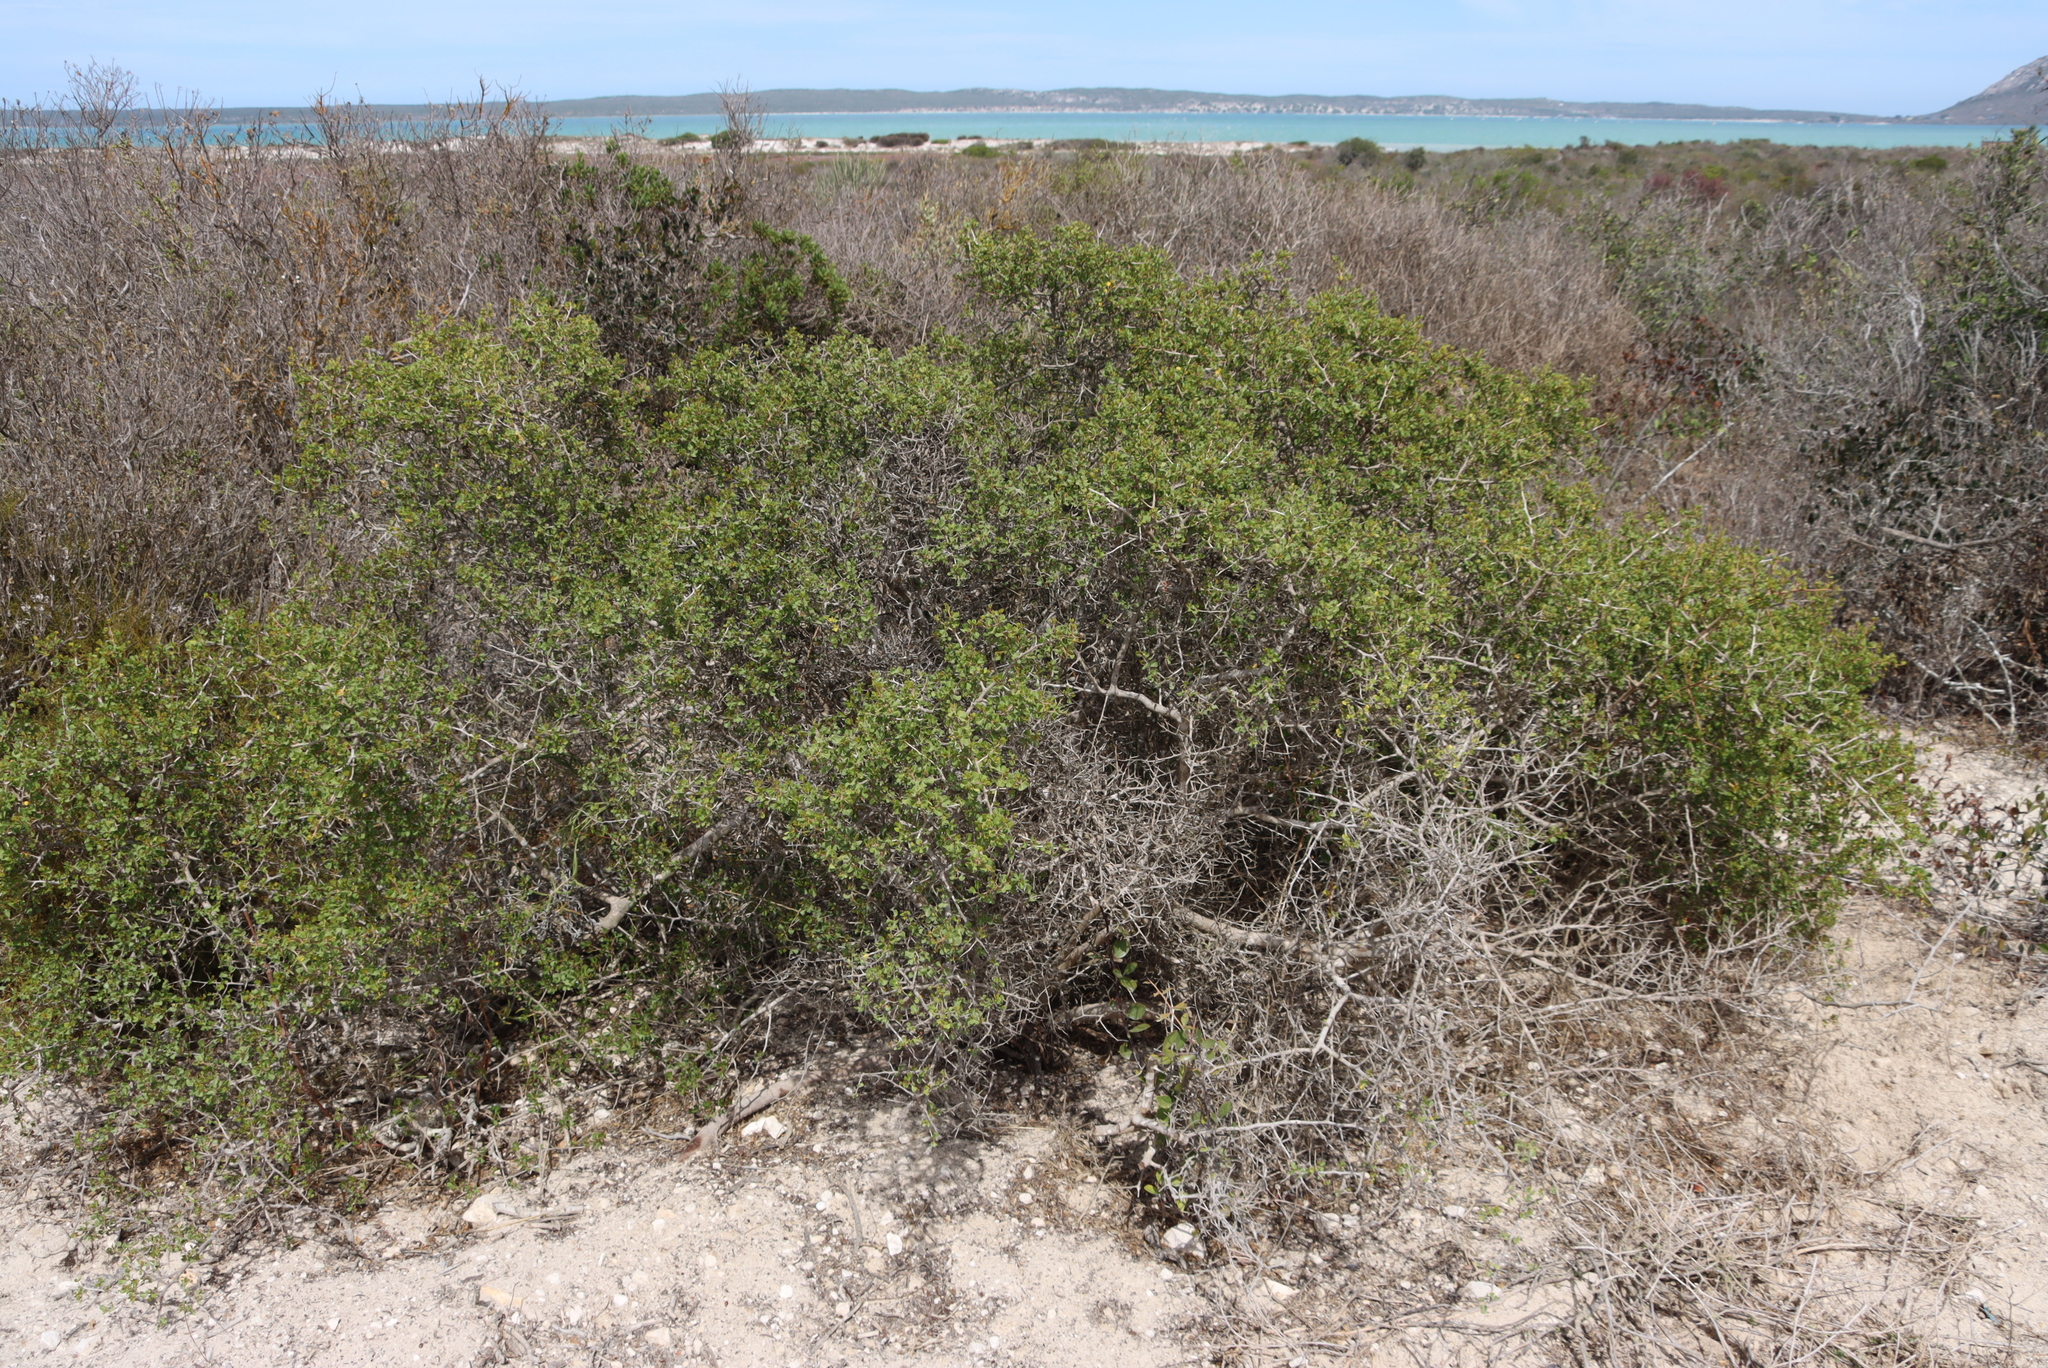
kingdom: Plantae
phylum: Tracheophyta
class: Magnoliopsida
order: Sapindales
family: Anacardiaceae
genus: Searsia
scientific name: Searsia glauca
